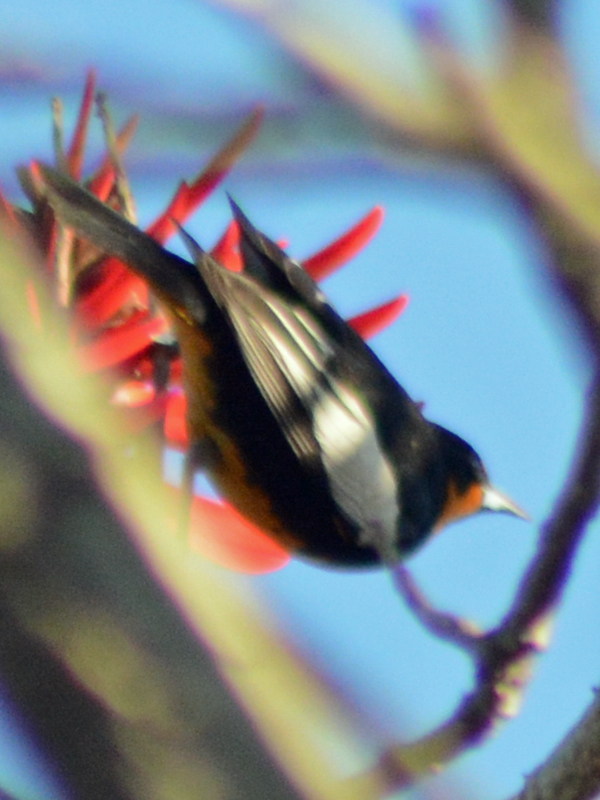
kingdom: Animalia
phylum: Chordata
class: Aves
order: Passeriformes
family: Icteridae
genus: Icterus
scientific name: Icterus abeillei
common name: Black-backed oriole
